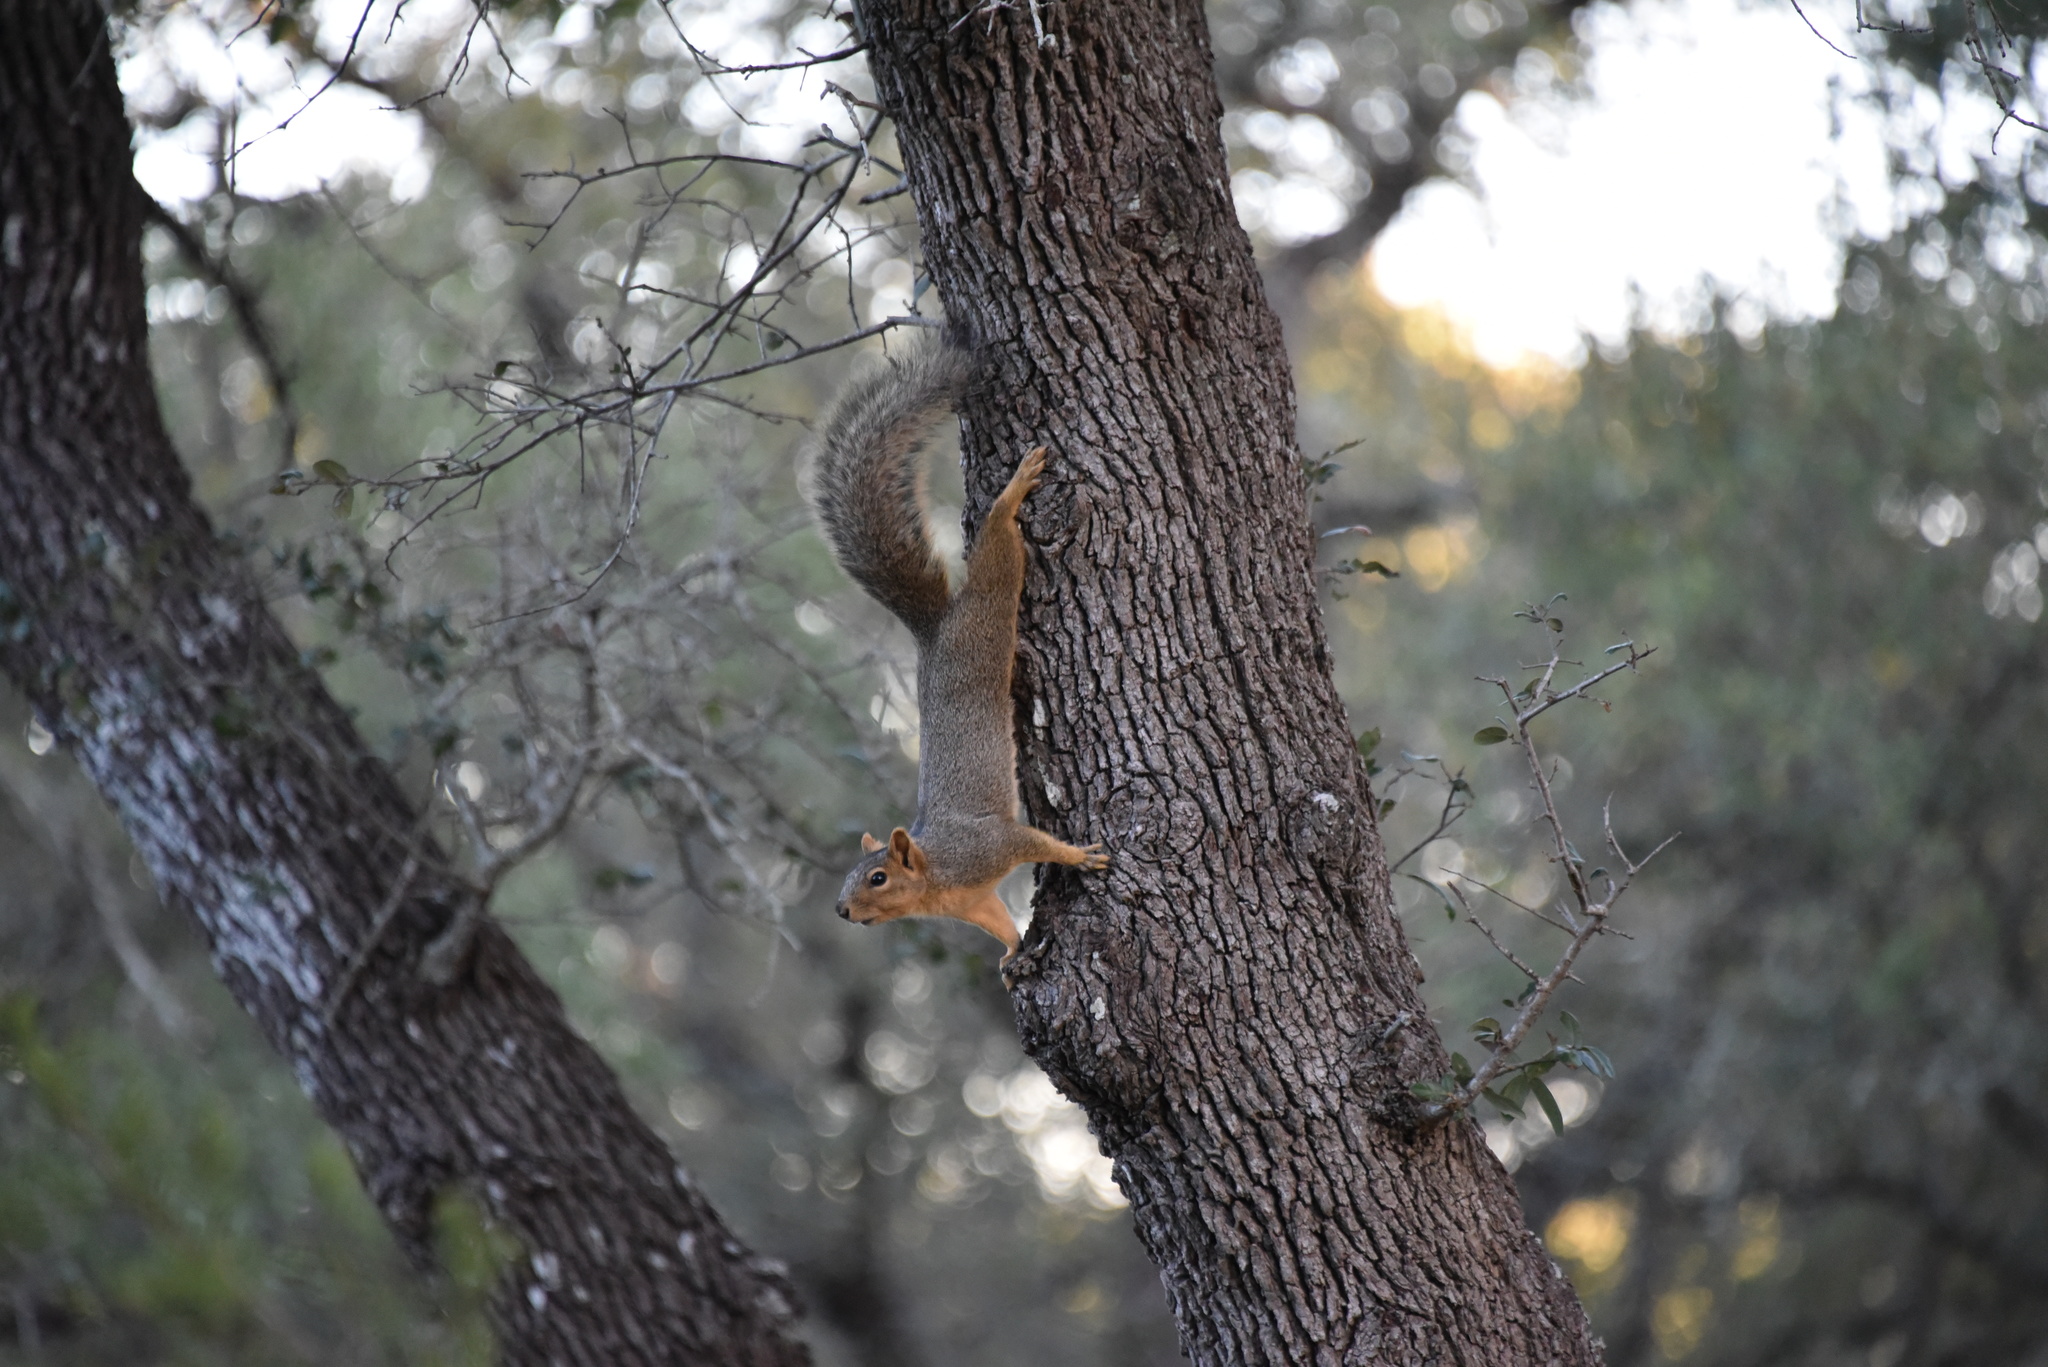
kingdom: Animalia
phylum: Chordata
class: Mammalia
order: Rodentia
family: Sciuridae
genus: Sciurus
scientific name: Sciurus niger
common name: Fox squirrel
